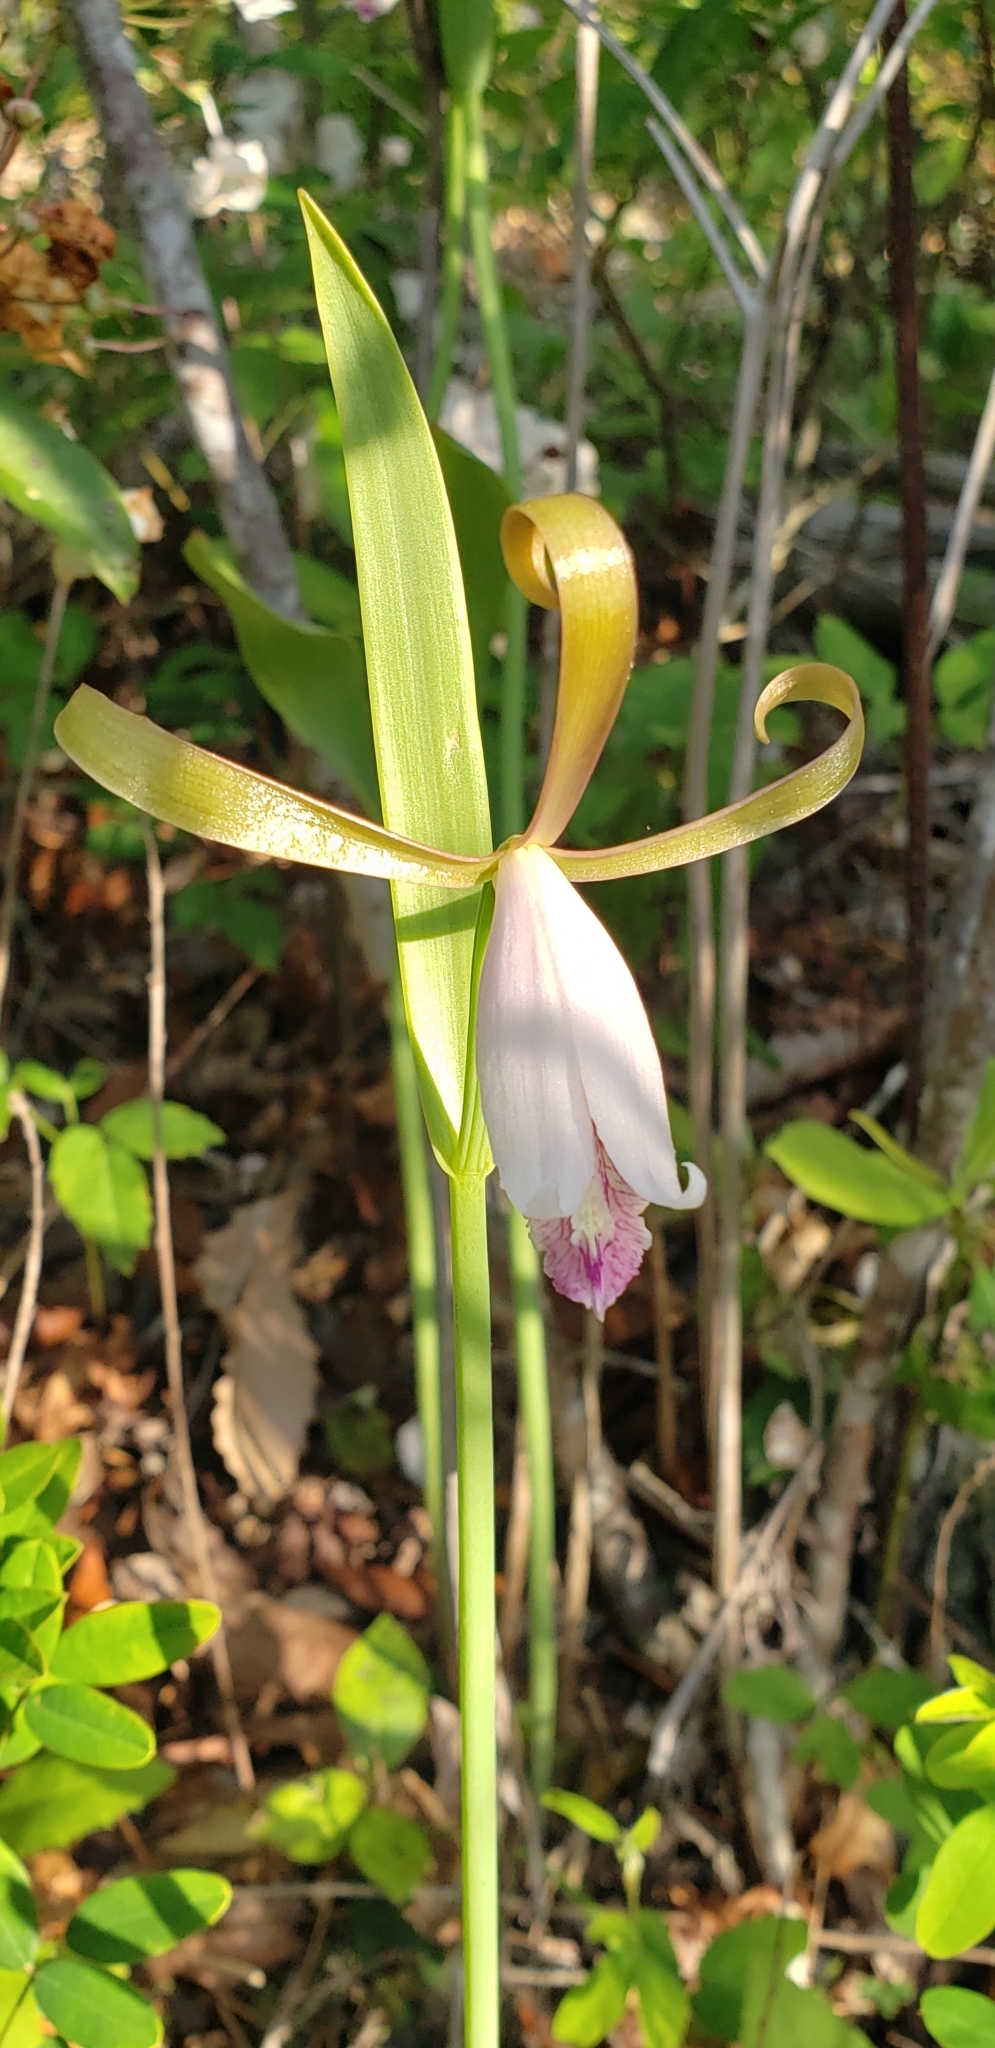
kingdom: Plantae
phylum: Tracheophyta
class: Liliopsida
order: Asparagales
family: Orchidaceae
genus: Cleistesiopsis
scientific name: Cleistesiopsis bifaria
